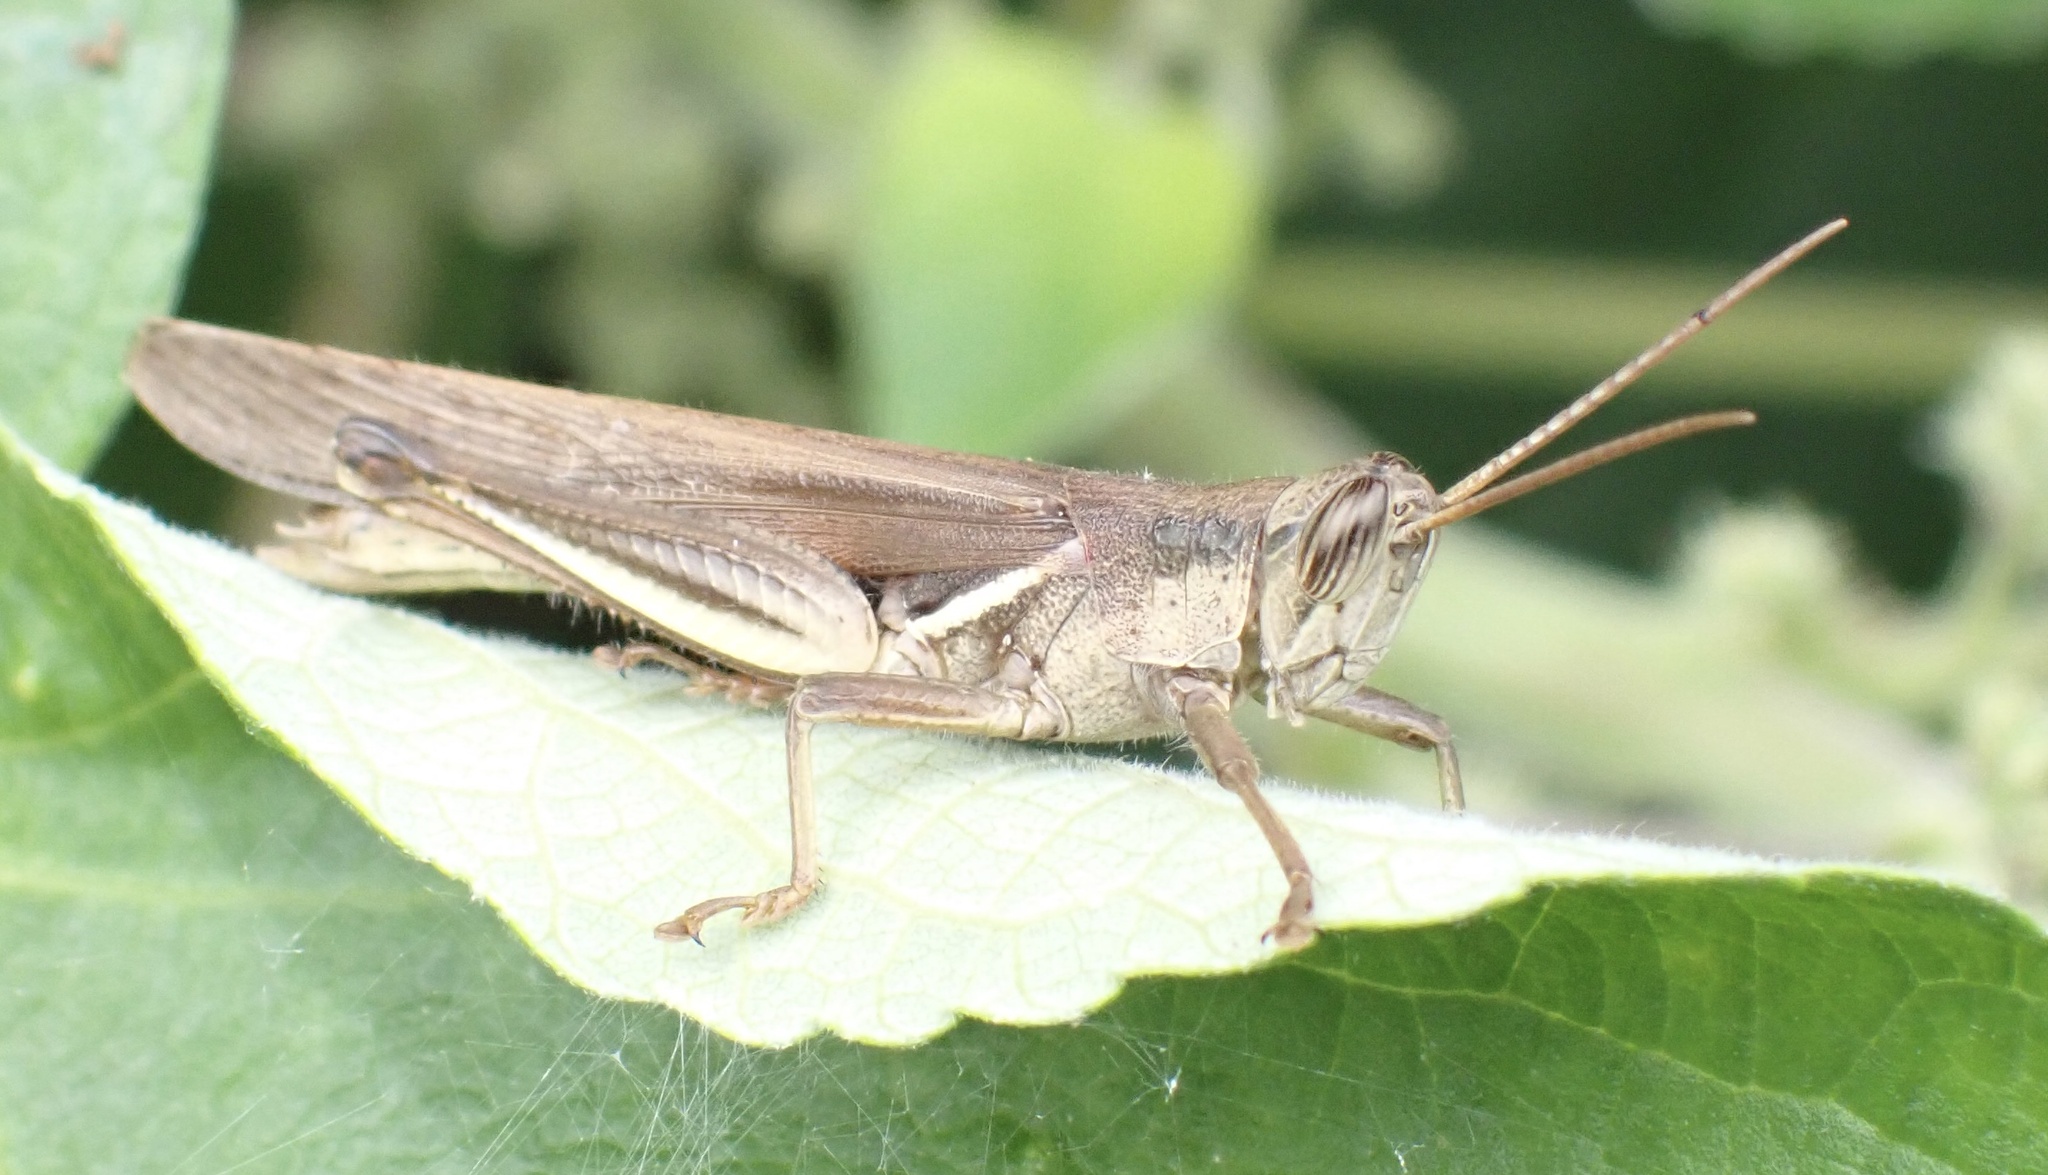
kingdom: Animalia
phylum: Arthropoda
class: Insecta
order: Orthoptera
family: Acrididae
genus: Stenocatantops
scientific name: Stenocatantops splendens
